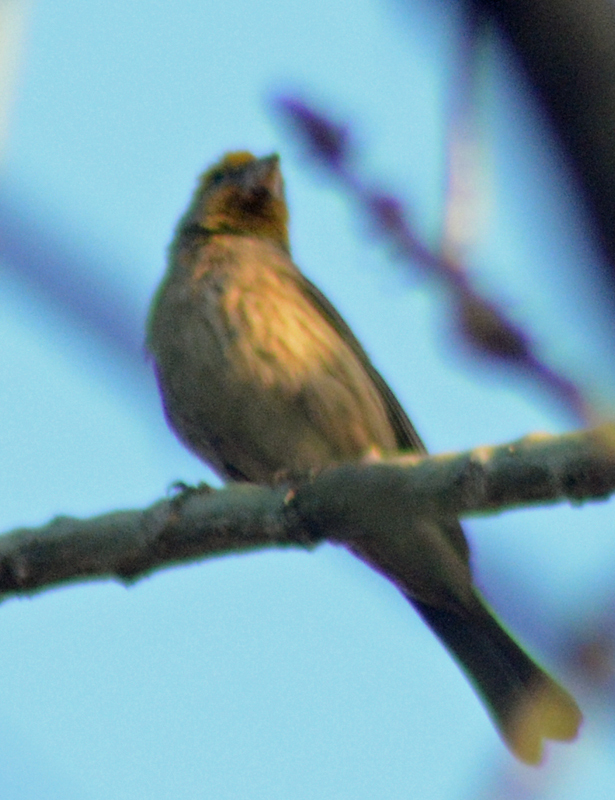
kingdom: Animalia
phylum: Chordata
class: Aves
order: Passeriformes
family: Fringillidae
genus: Haemorhous
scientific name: Haemorhous mexicanus
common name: House finch
